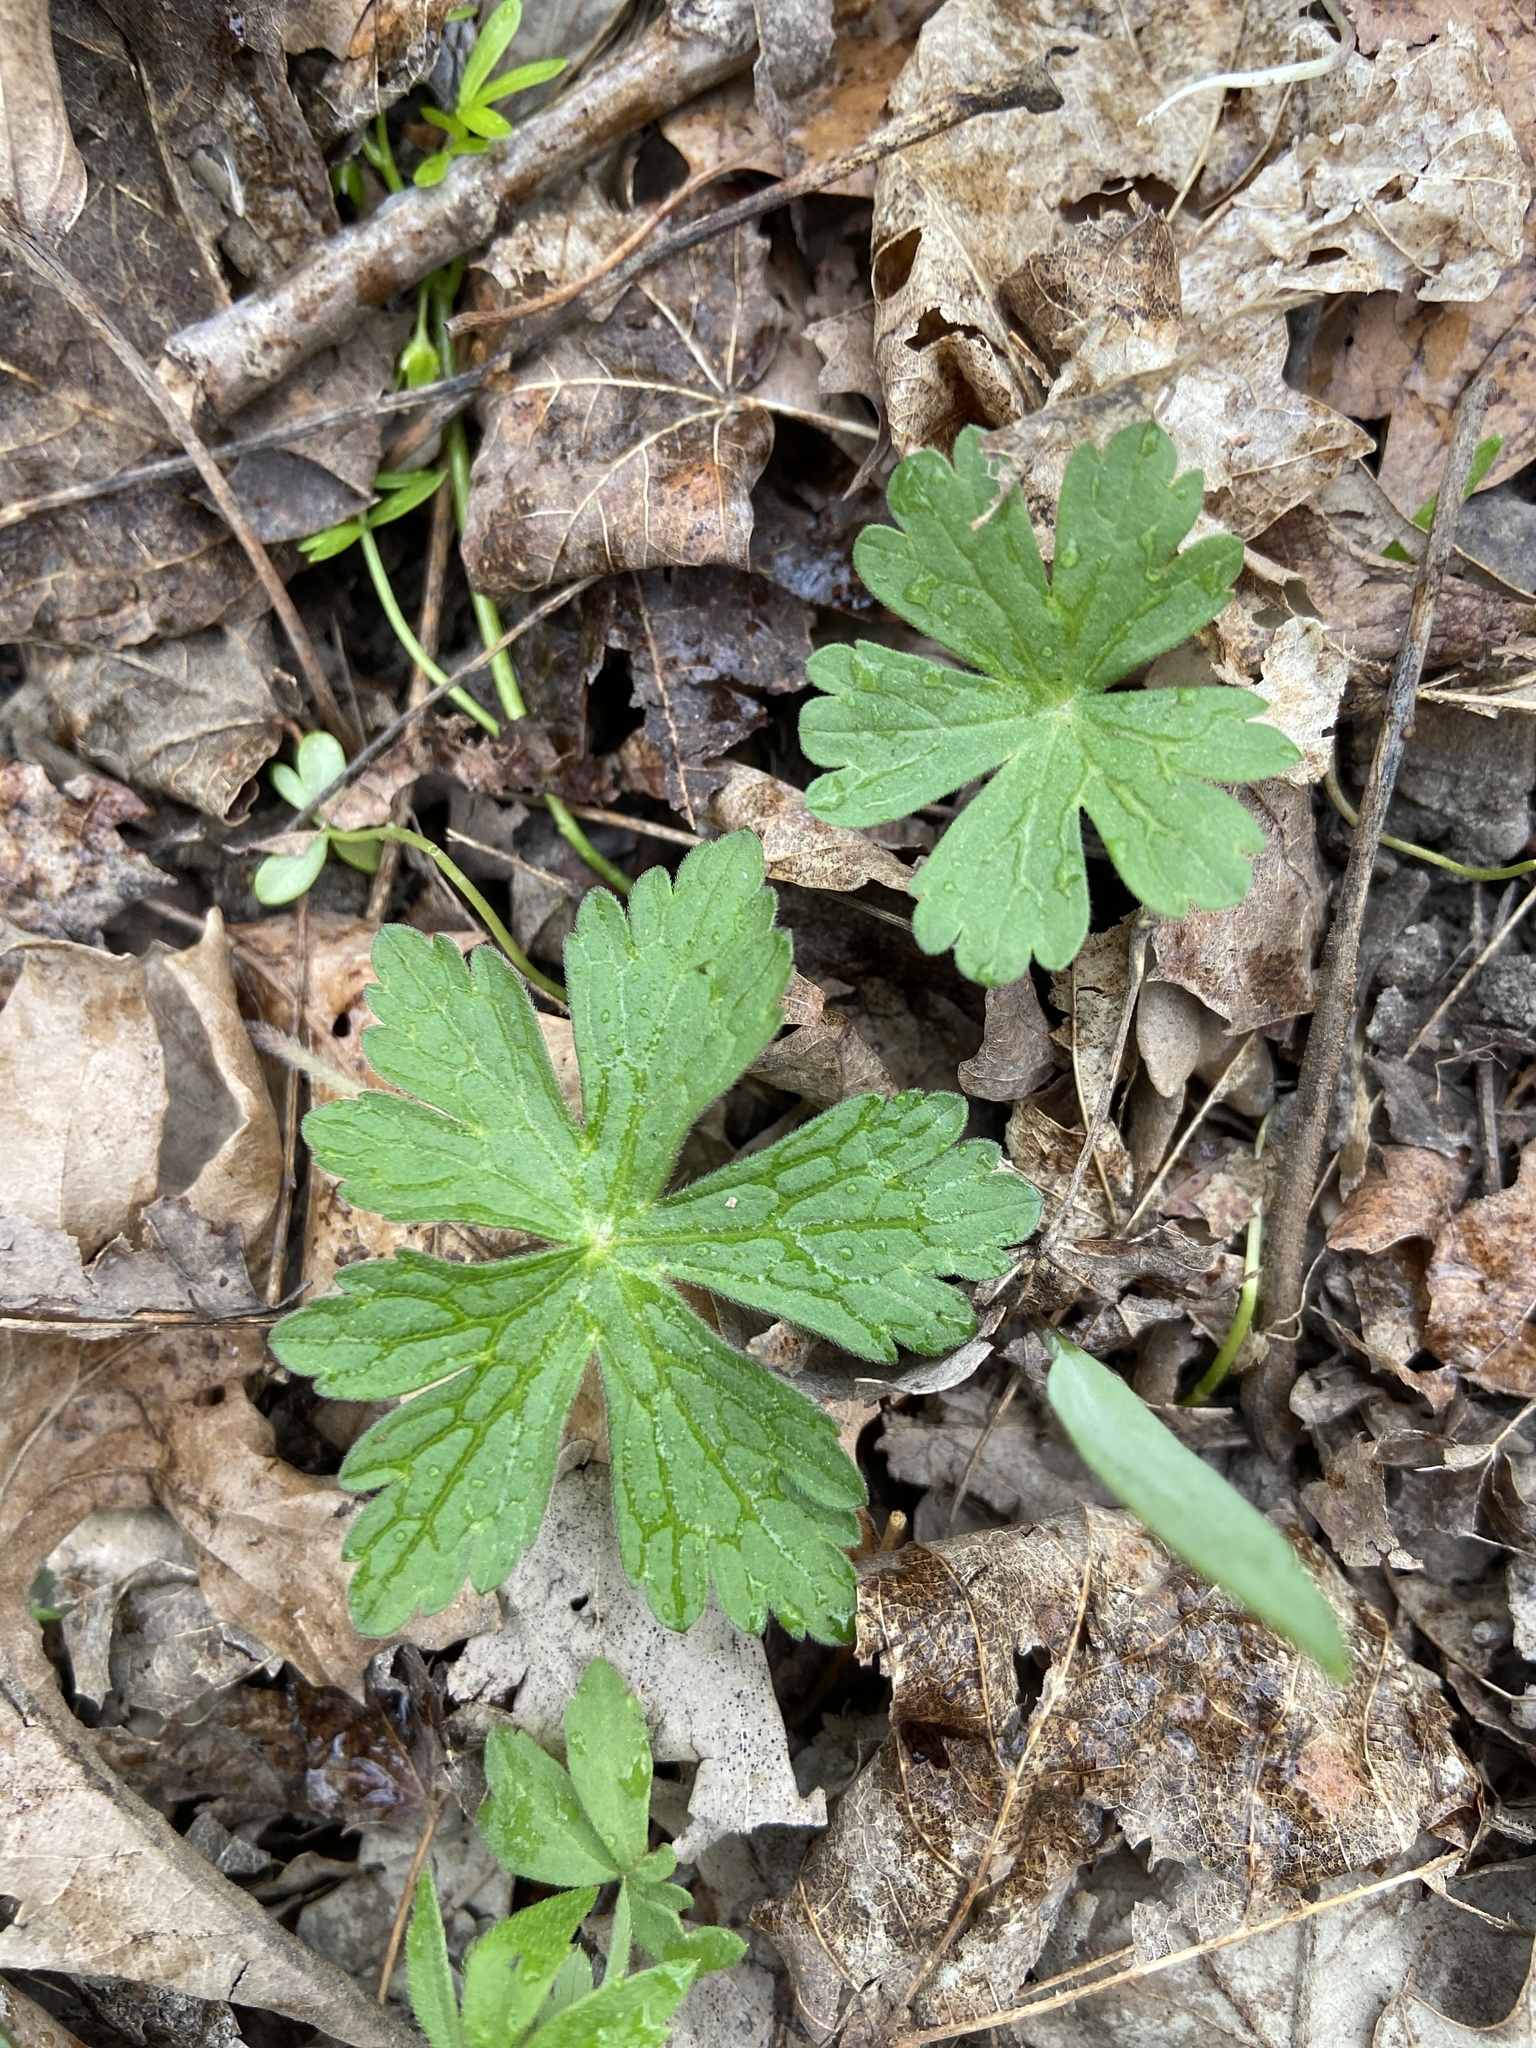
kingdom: Plantae
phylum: Tracheophyta
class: Magnoliopsida
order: Geraniales
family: Geraniaceae
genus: Geranium
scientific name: Geranium maculatum
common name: Spotted geranium
